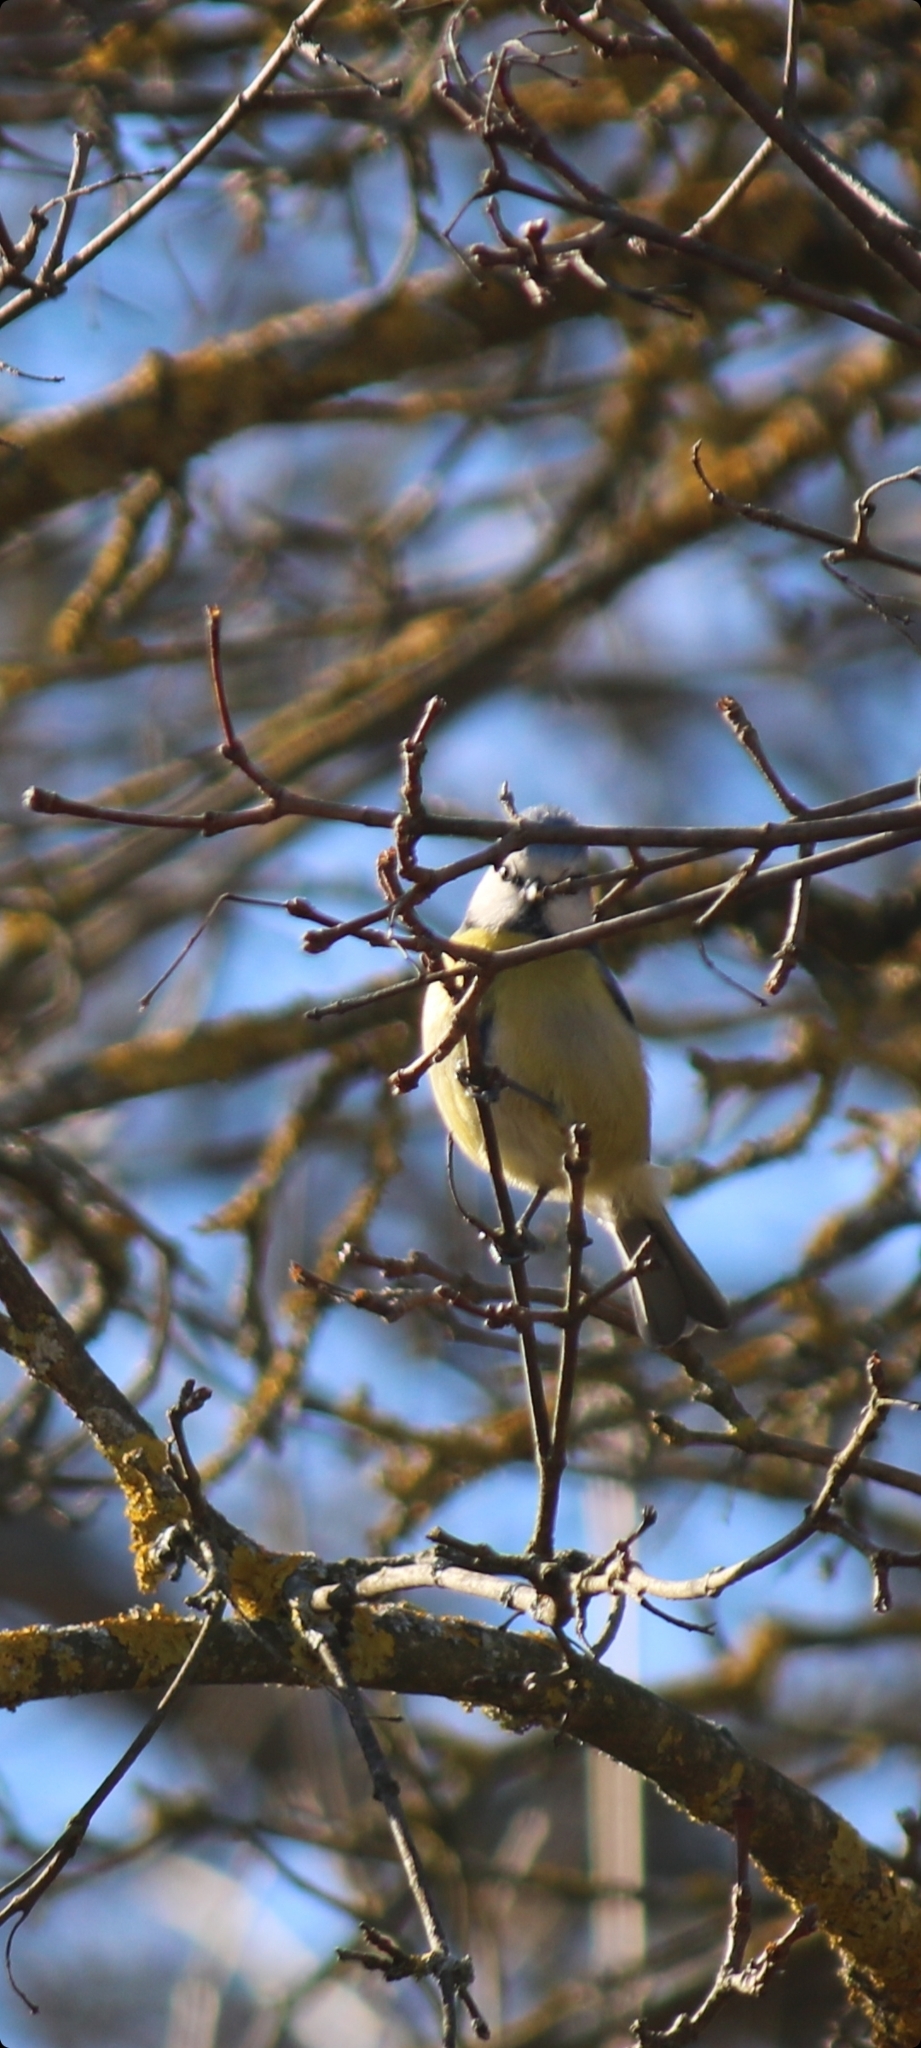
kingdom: Animalia
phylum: Chordata
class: Aves
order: Passeriformes
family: Paridae
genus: Cyanistes
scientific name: Cyanistes caeruleus
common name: Eurasian blue tit
